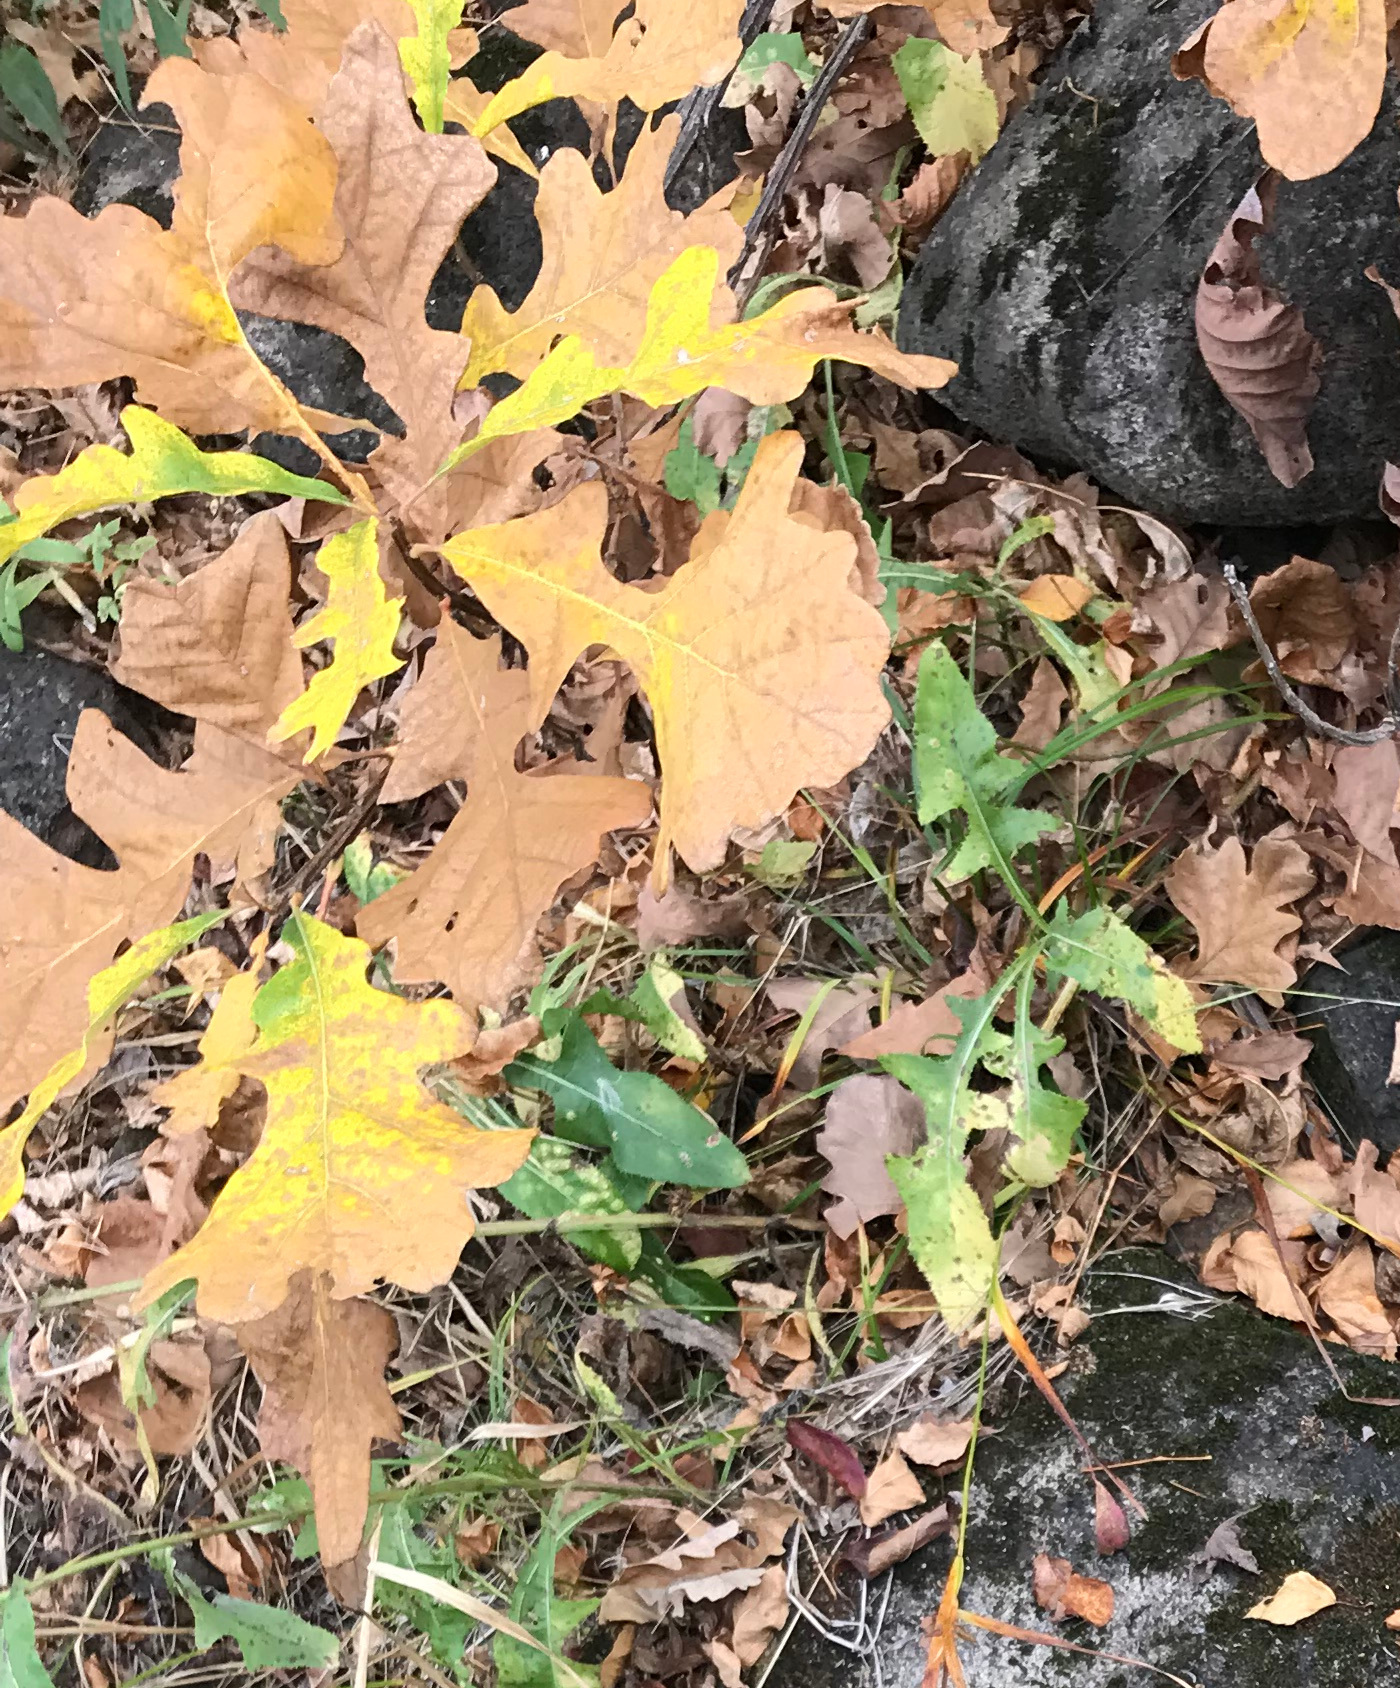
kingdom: Plantae
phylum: Tracheophyta
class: Magnoliopsida
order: Fagales
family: Fagaceae
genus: Quercus
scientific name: Quercus macrocarpa
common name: Bur oak
